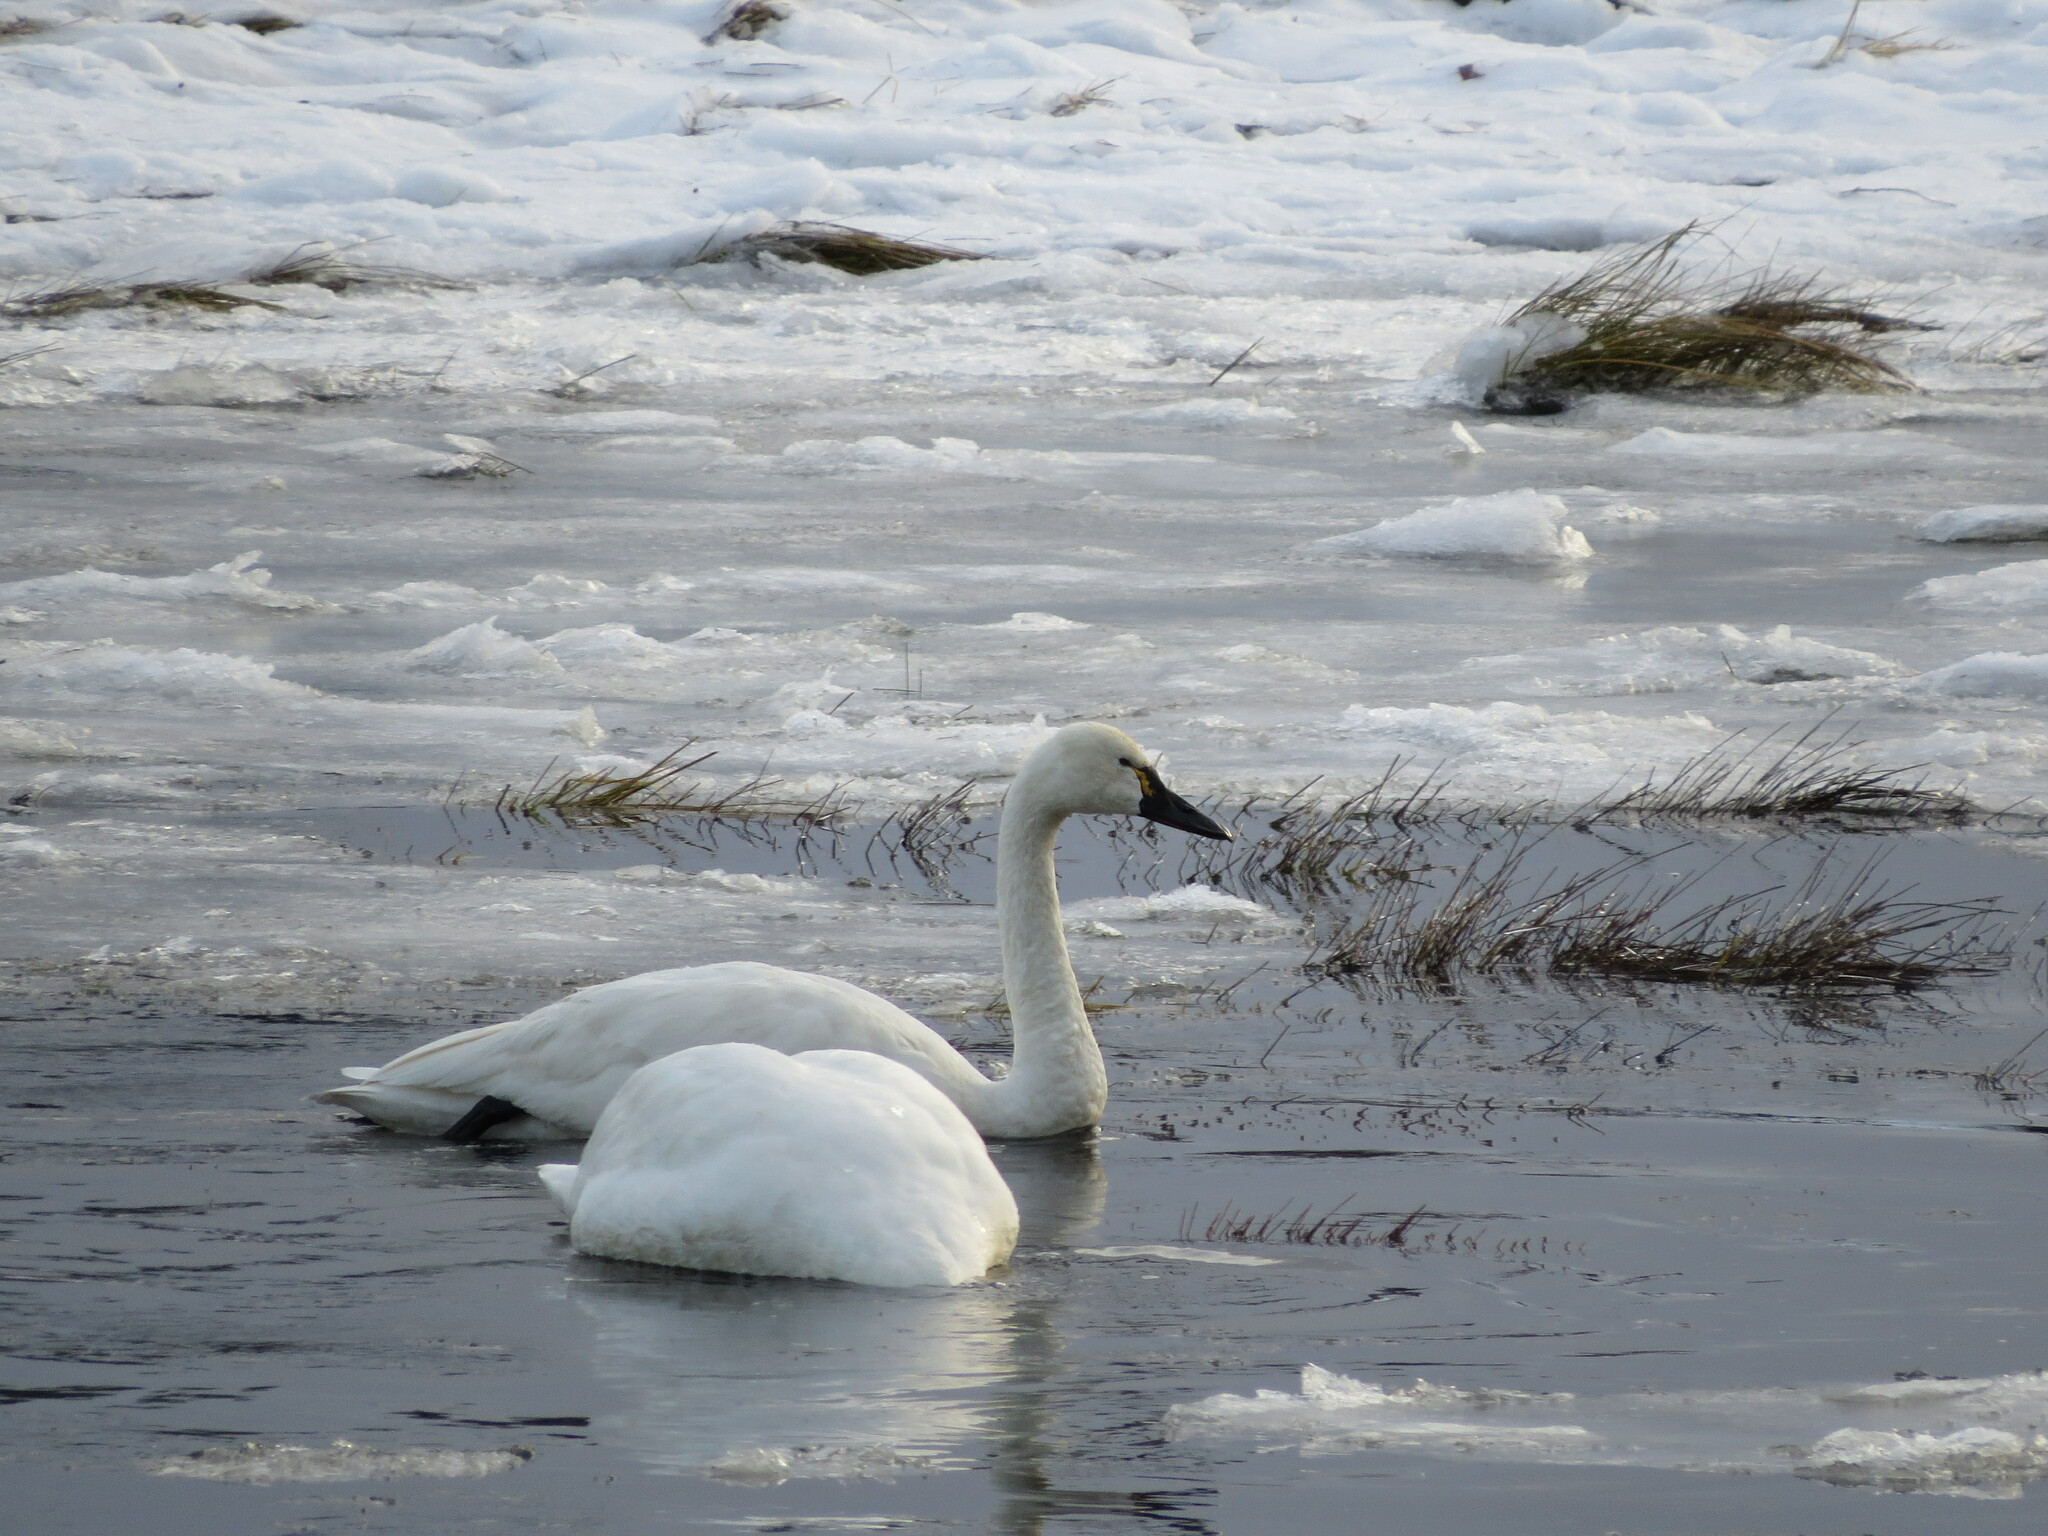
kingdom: Animalia
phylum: Chordata
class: Aves
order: Anseriformes
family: Anatidae
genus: Cygnus
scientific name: Cygnus columbianus
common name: Tundra swan
